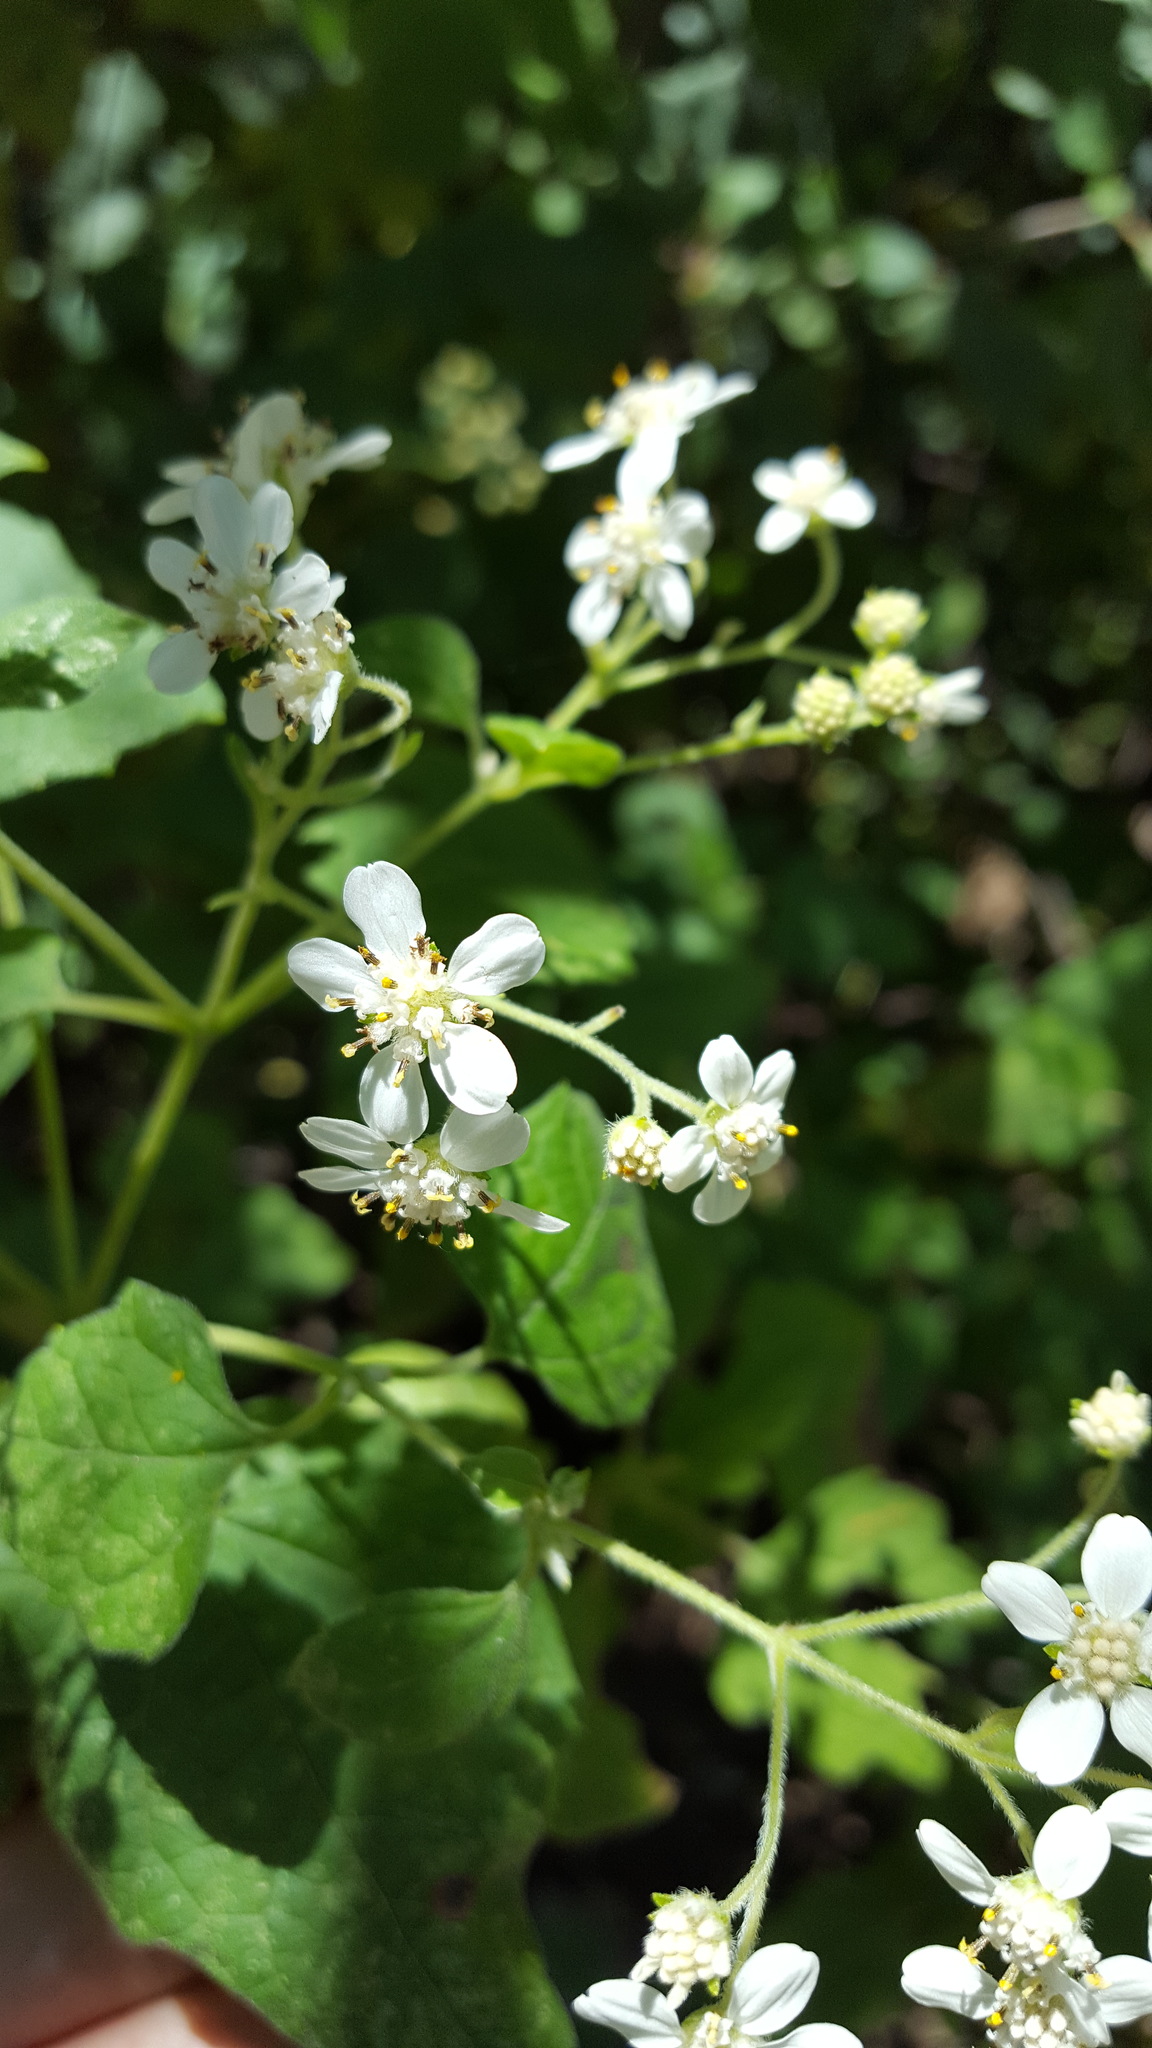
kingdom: Plantae
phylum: Tracheophyta
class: Magnoliopsida
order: Asterales
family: Asteraceae
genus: Montanoa
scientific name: Montanoa tomentosa
